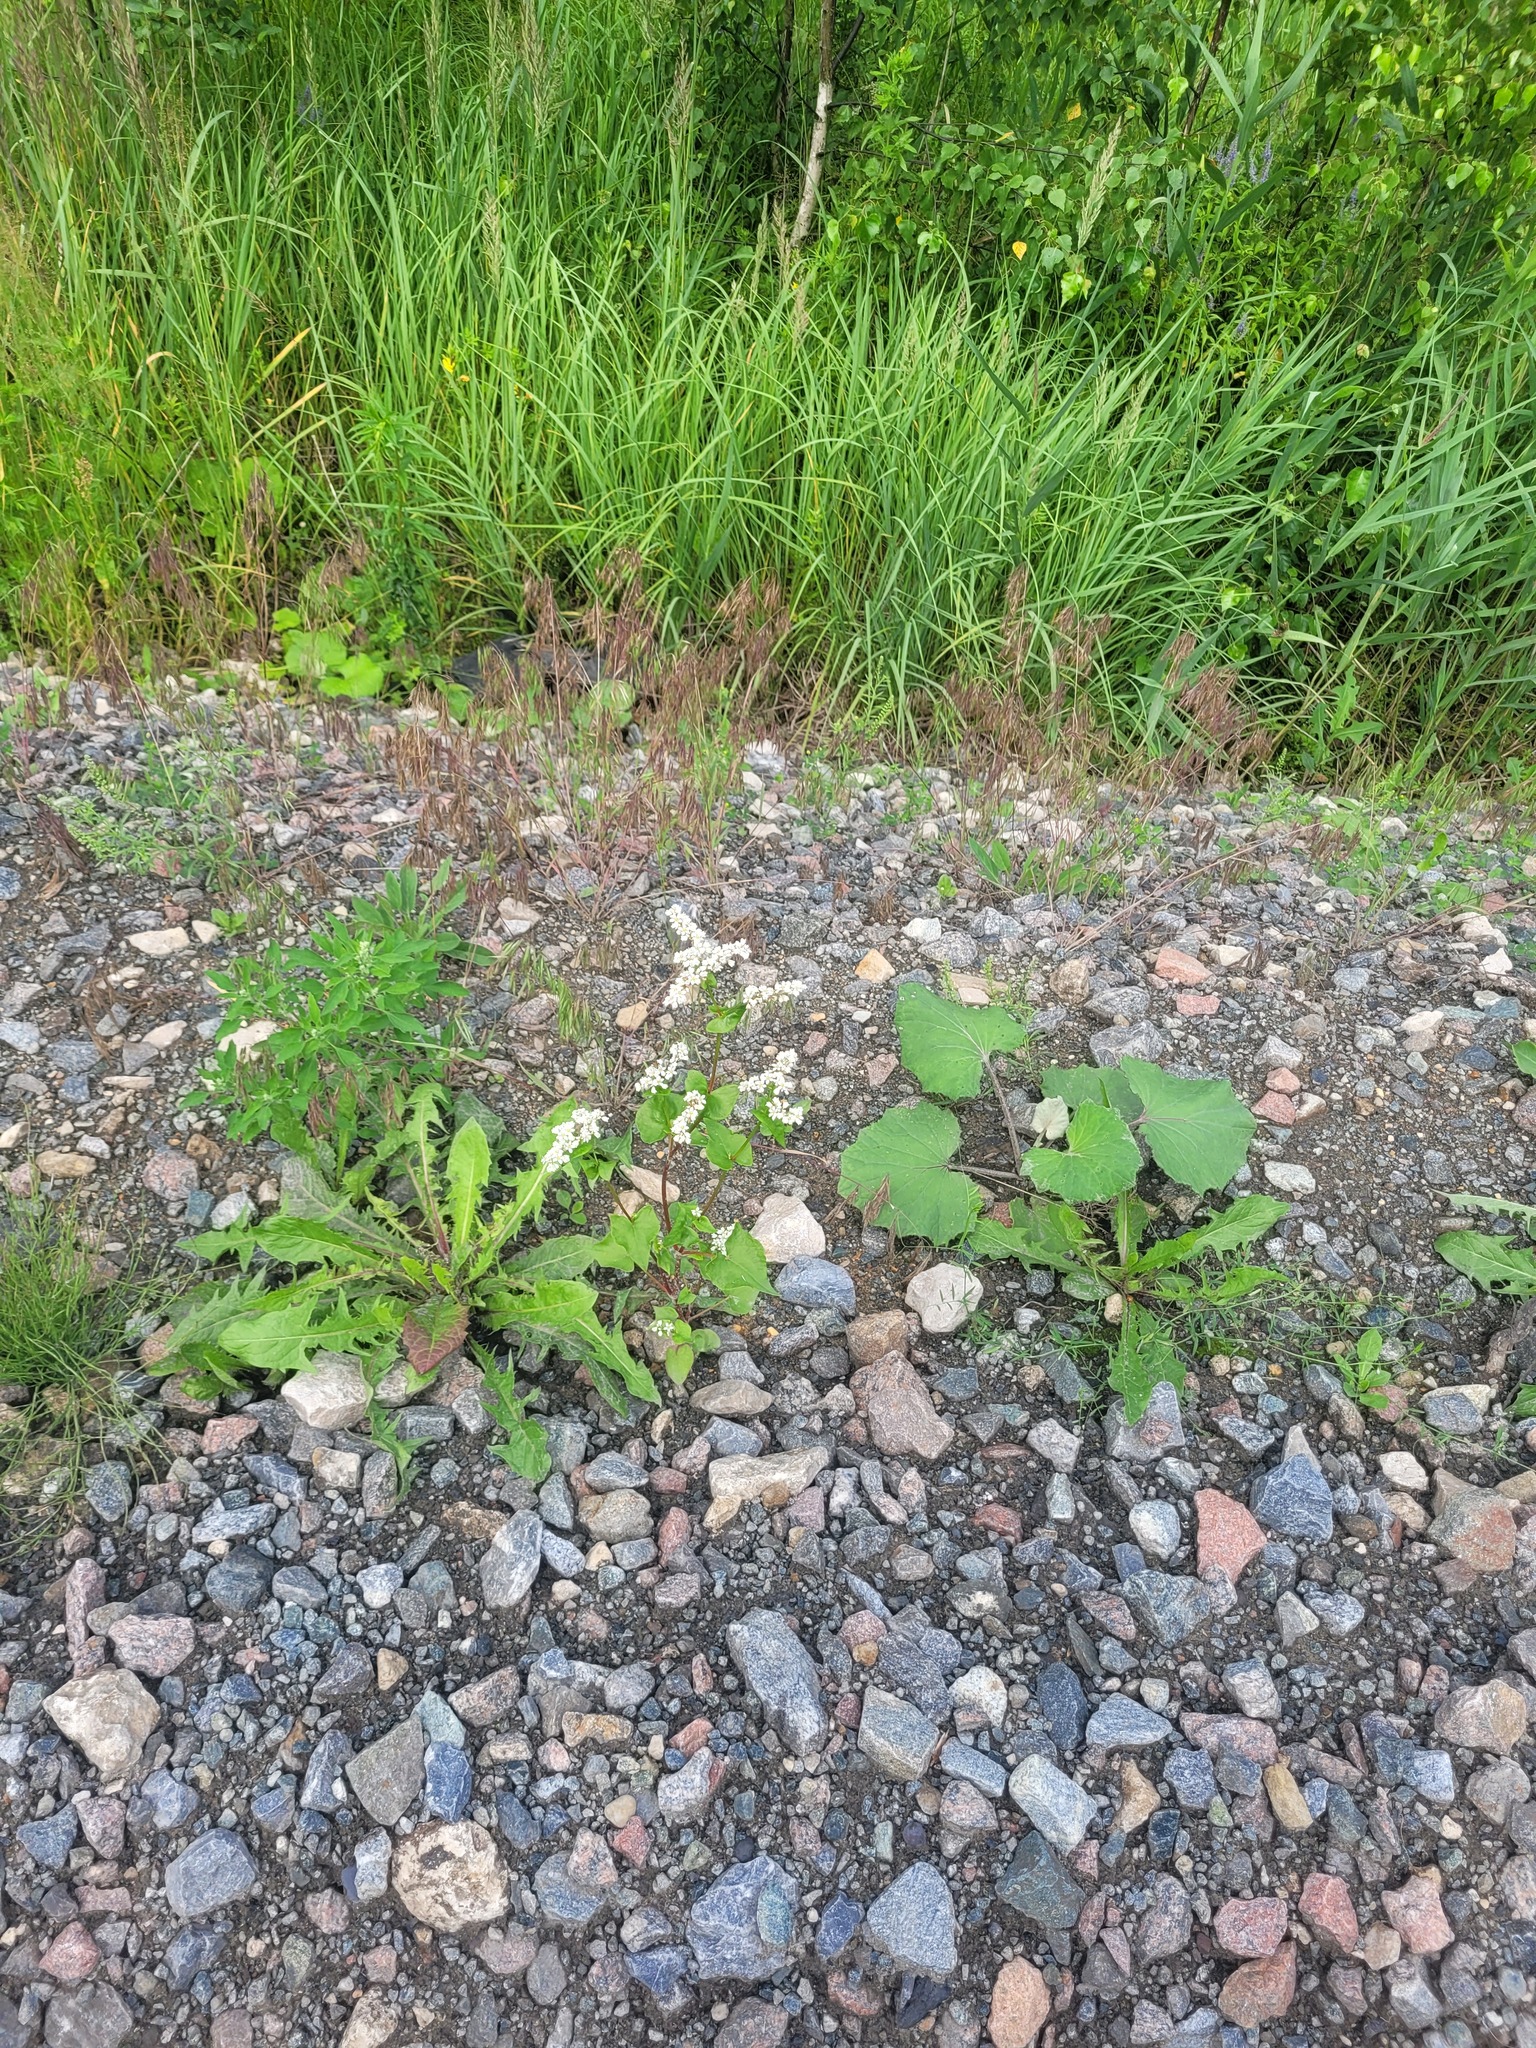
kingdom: Plantae
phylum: Tracheophyta
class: Magnoliopsida
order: Caryophyllales
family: Polygonaceae
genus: Fagopyrum
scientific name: Fagopyrum esculentum
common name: Buckwheat
